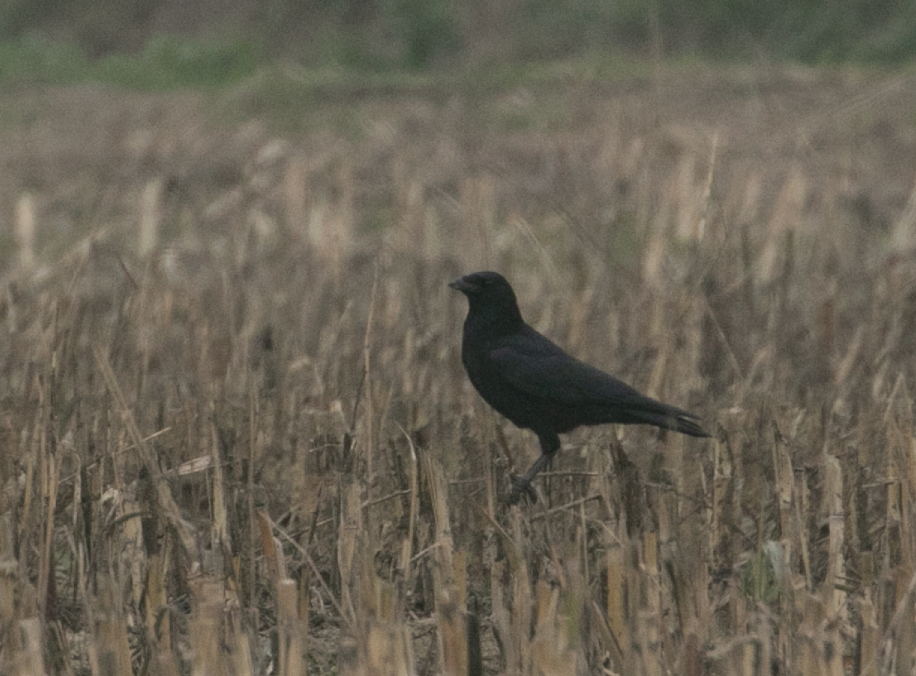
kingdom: Animalia
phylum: Chordata
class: Aves
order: Passeriformes
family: Corvidae
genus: Corvus
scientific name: Corvus corone
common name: Carrion crow
